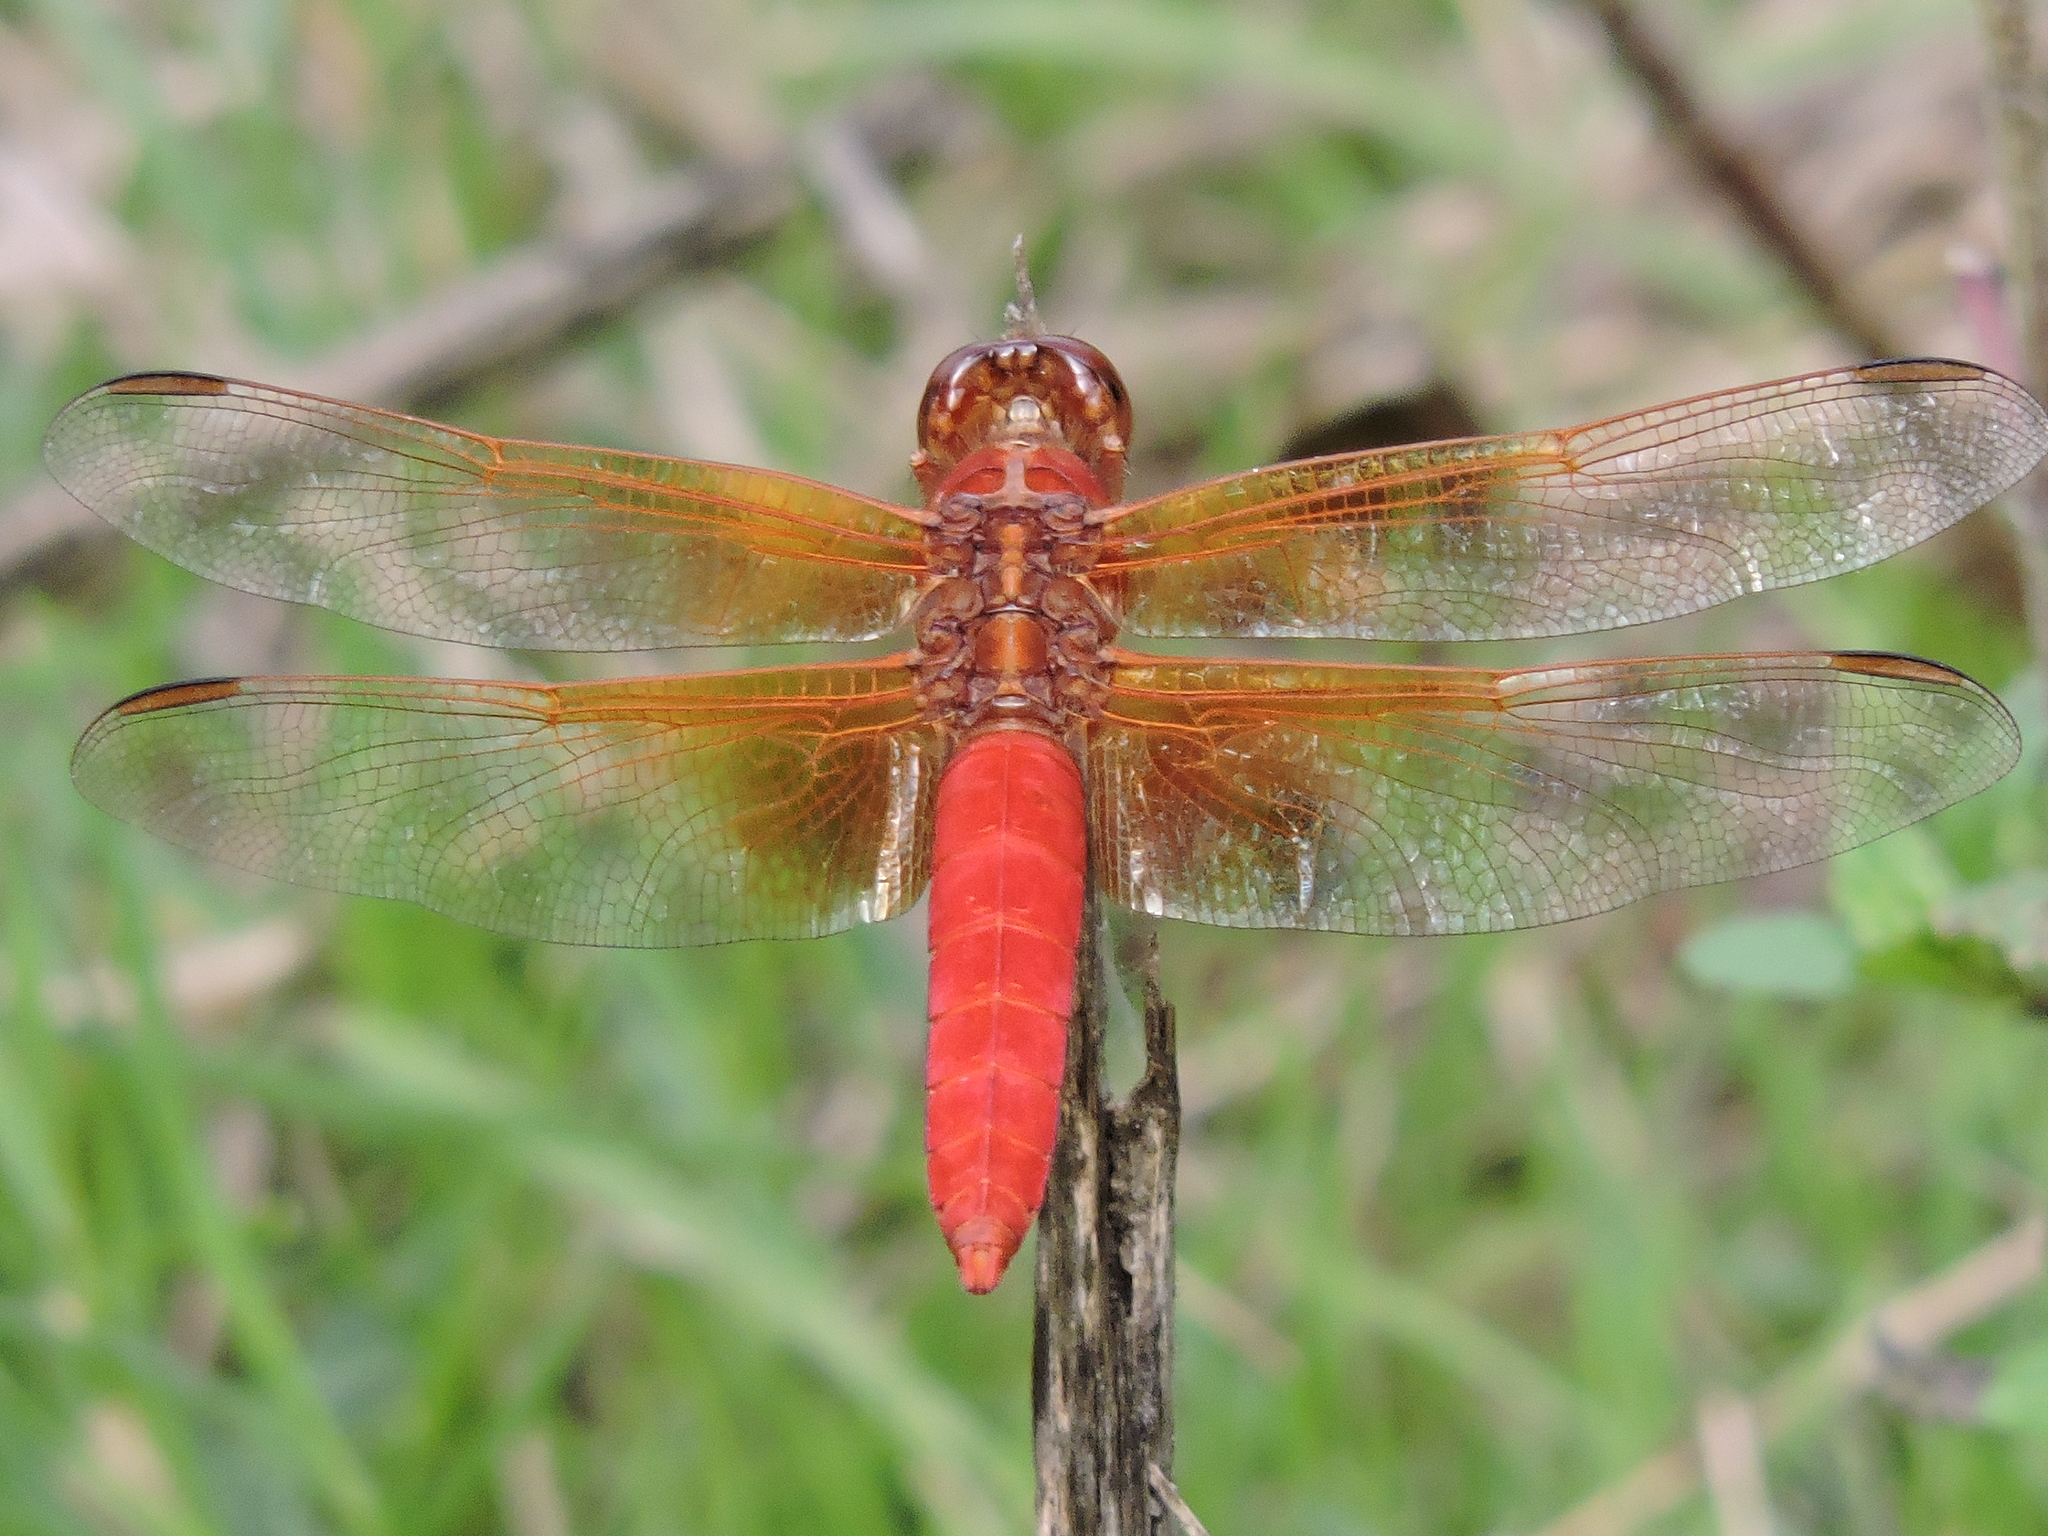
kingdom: Animalia
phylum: Arthropoda
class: Insecta
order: Odonata
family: Libellulidae
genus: Libellula
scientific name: Libellula croceipennis
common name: Neon skimmer
